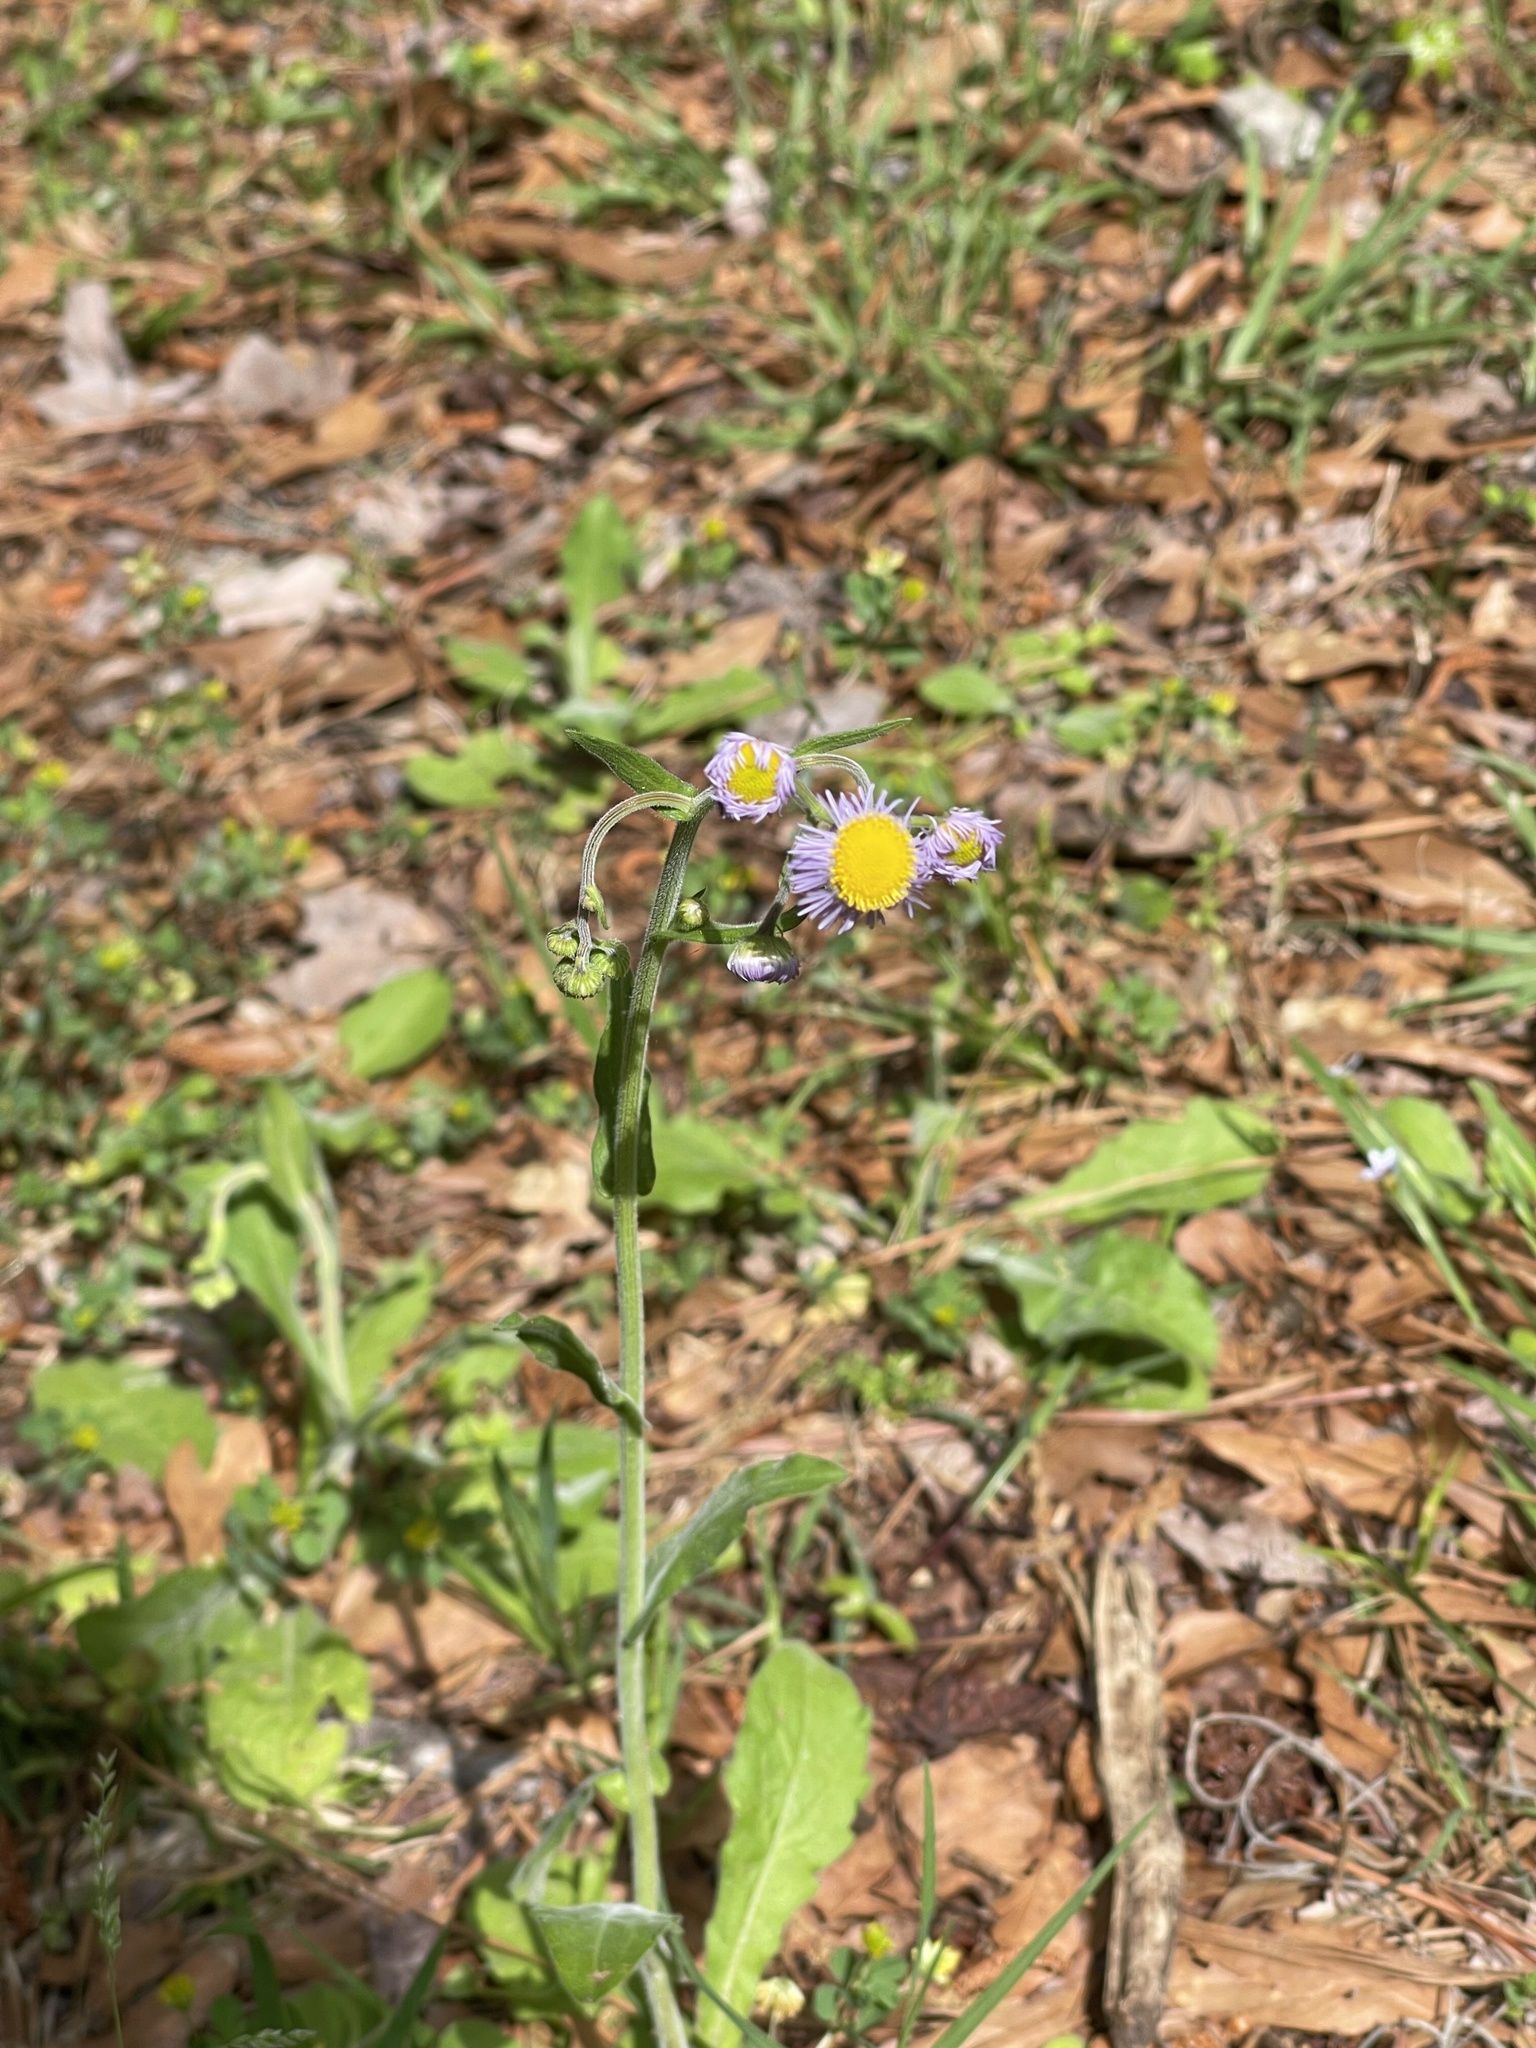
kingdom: Plantae
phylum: Tracheophyta
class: Magnoliopsida
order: Asterales
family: Asteraceae
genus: Erigeron
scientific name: Erigeron quercifolius
